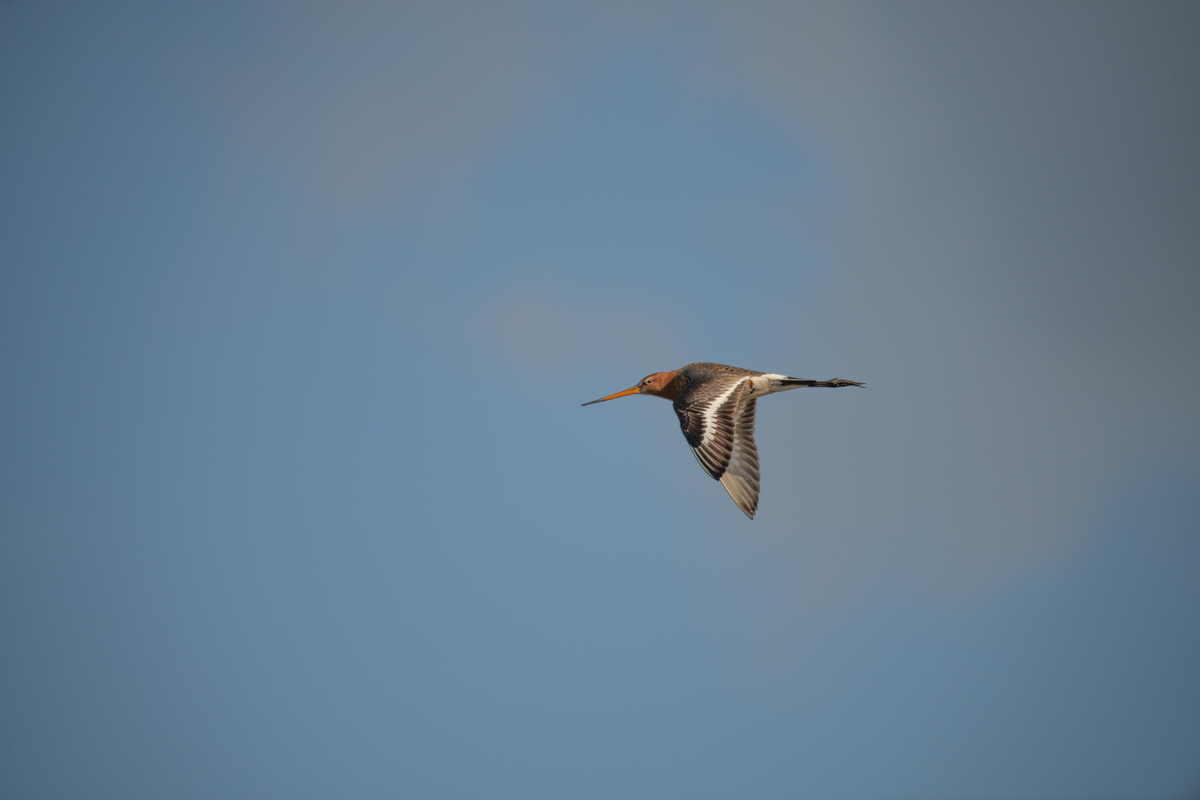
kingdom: Animalia
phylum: Chordata
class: Aves
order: Charadriiformes
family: Scolopacidae
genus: Limosa
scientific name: Limosa limosa
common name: Black-tailed godwit
